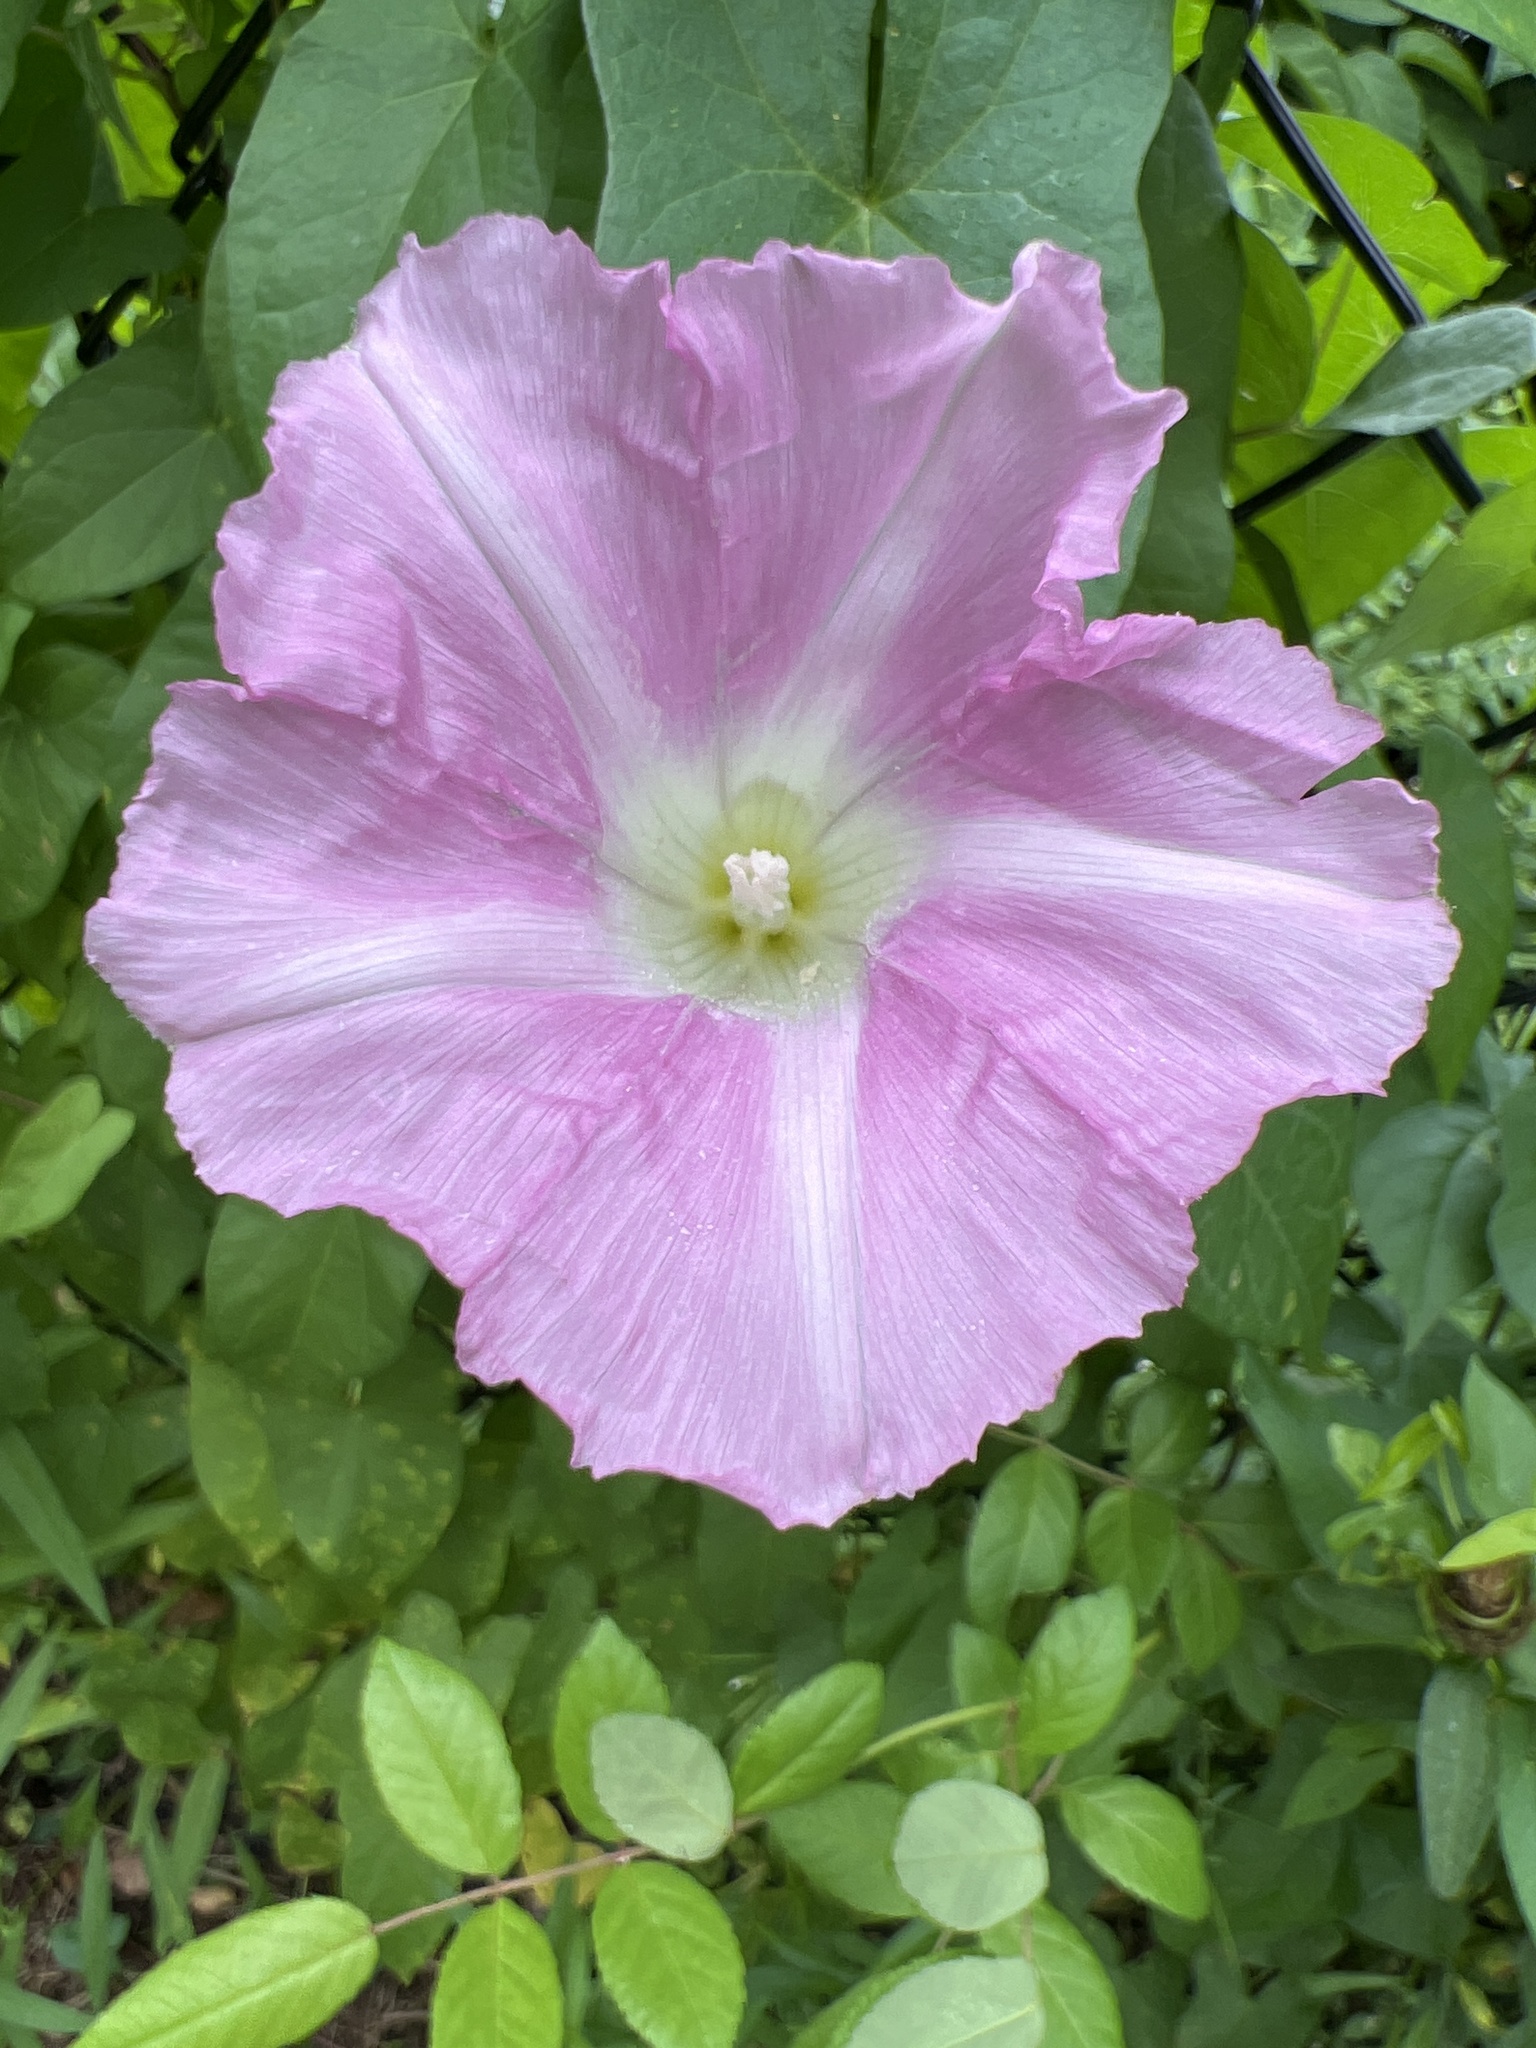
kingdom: Plantae
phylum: Tracheophyta
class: Magnoliopsida
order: Solanales
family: Convolvulaceae
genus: Calystegia
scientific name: Calystegia sepium
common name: Hedge bindweed
